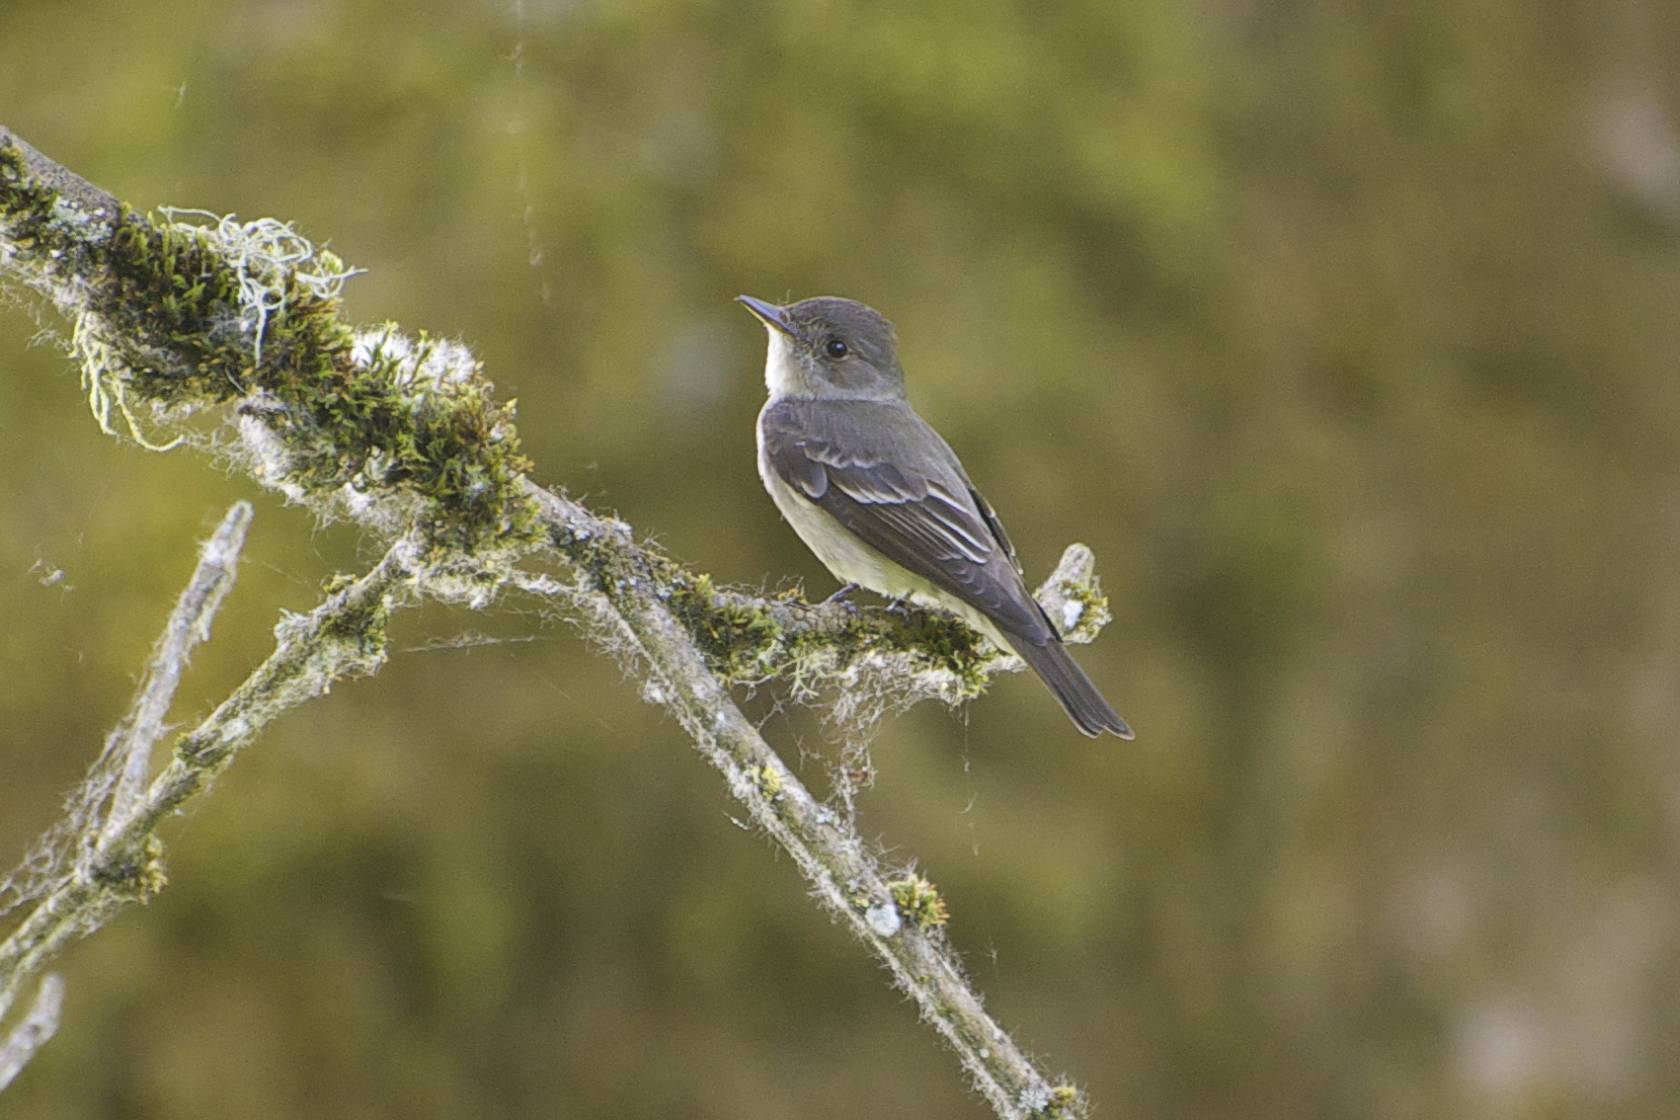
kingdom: Animalia
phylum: Chordata
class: Aves
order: Passeriformes
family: Tyrannidae
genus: Contopus
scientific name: Contopus sordidulus
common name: Western wood-pewee
